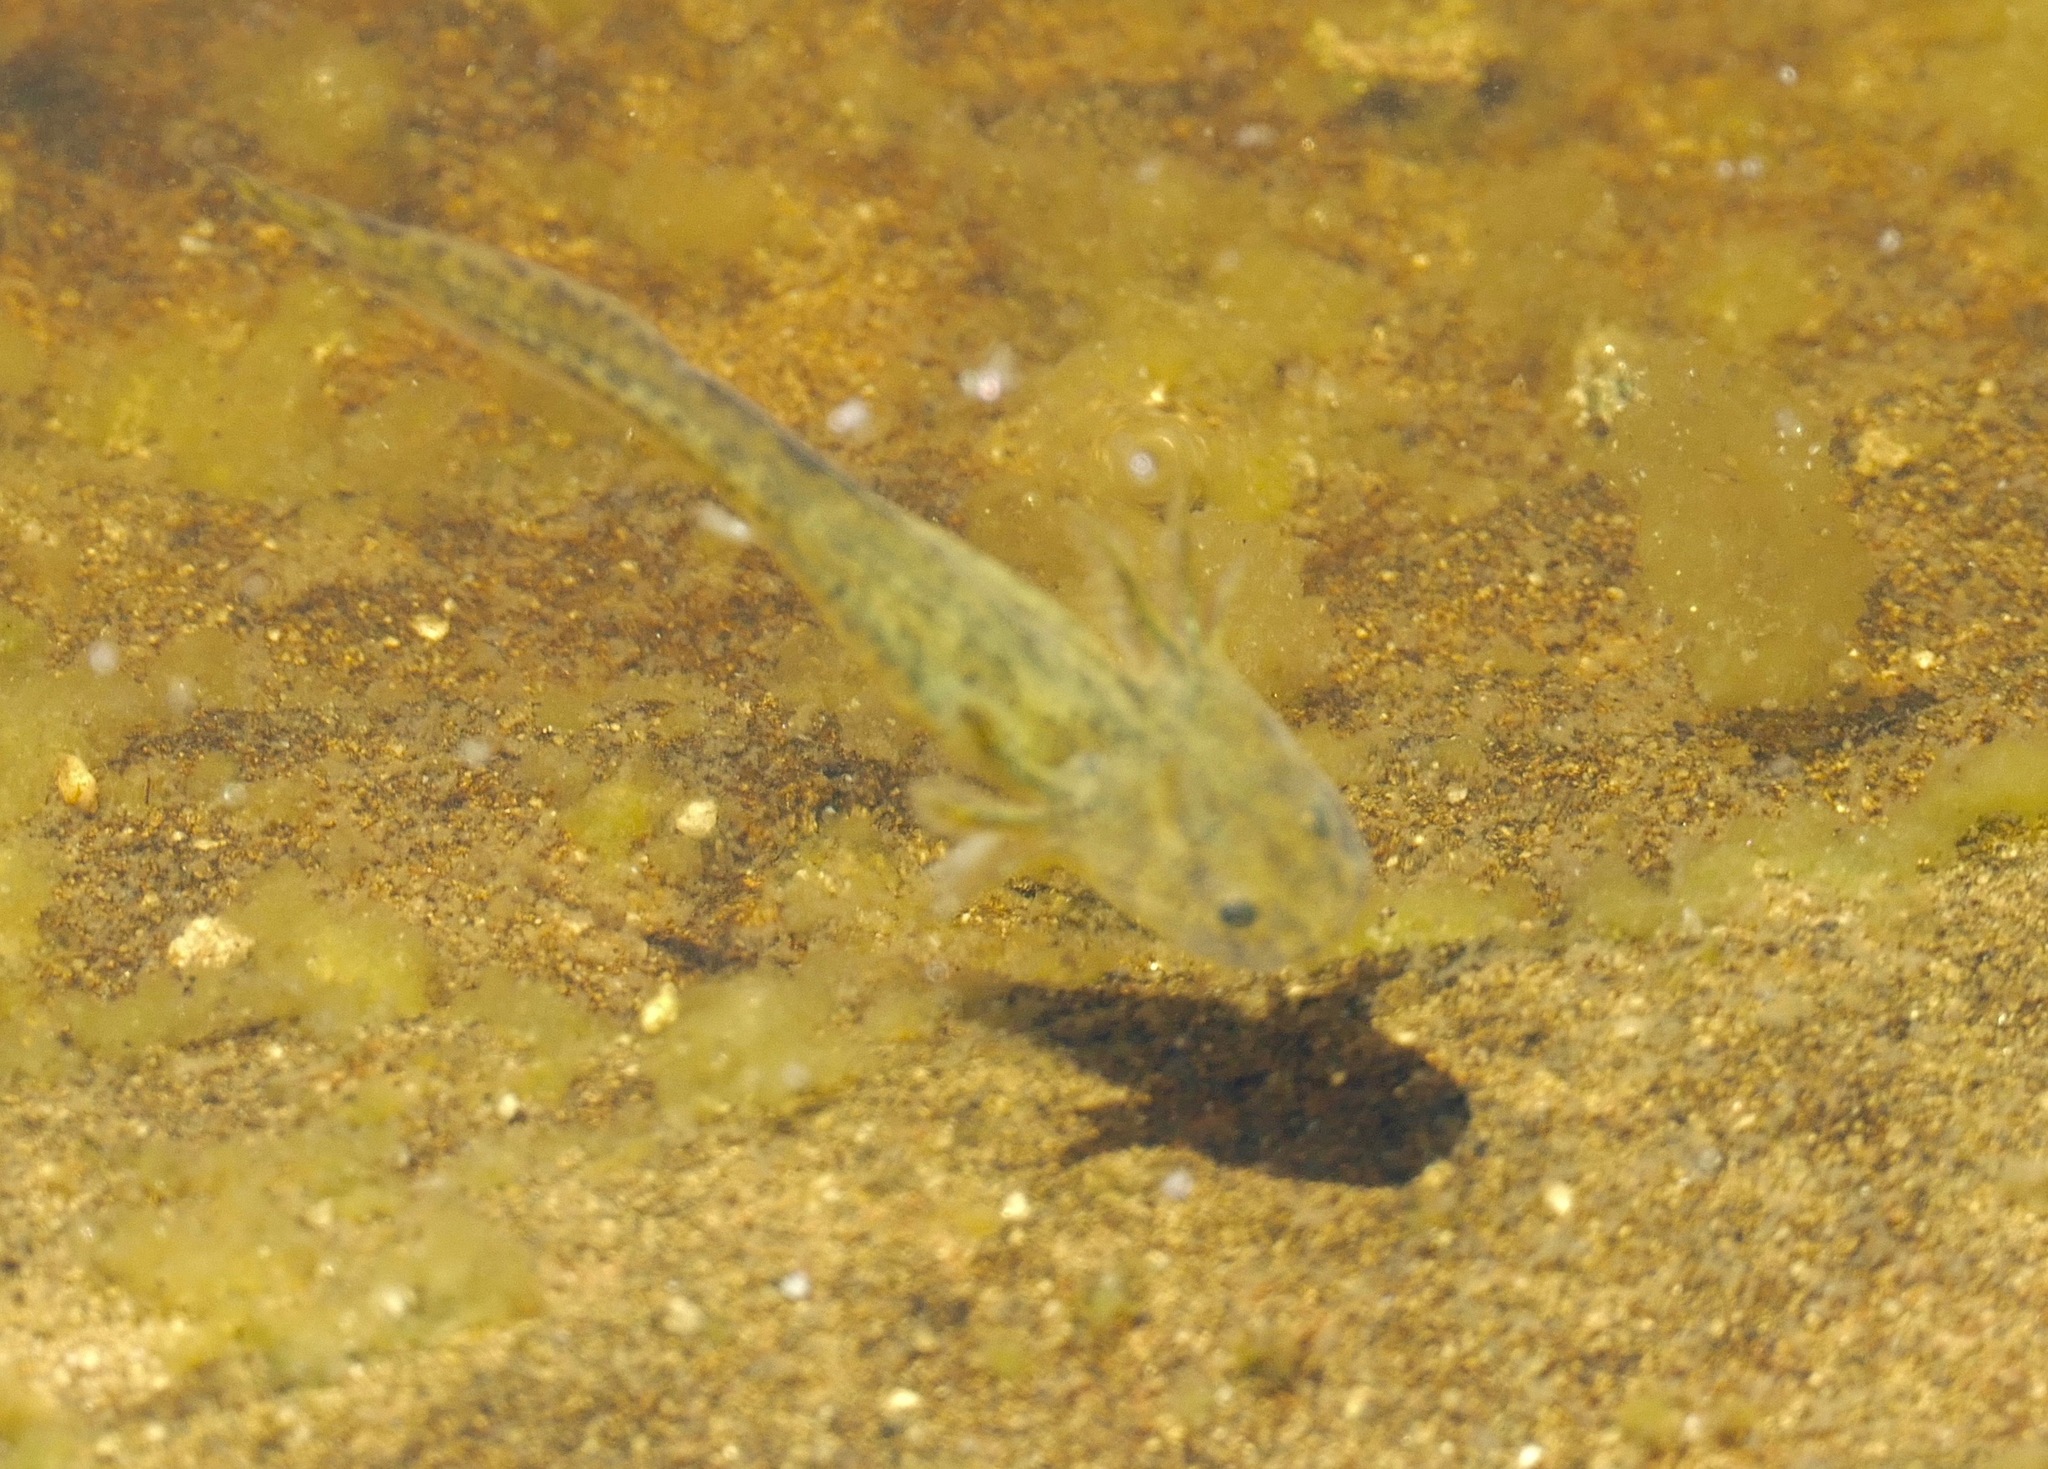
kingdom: Animalia
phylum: Chordata
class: Amphibia
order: Caudata
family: Ambystomatidae
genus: Ambystoma
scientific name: Ambystoma californiense
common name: California tiger salamander
